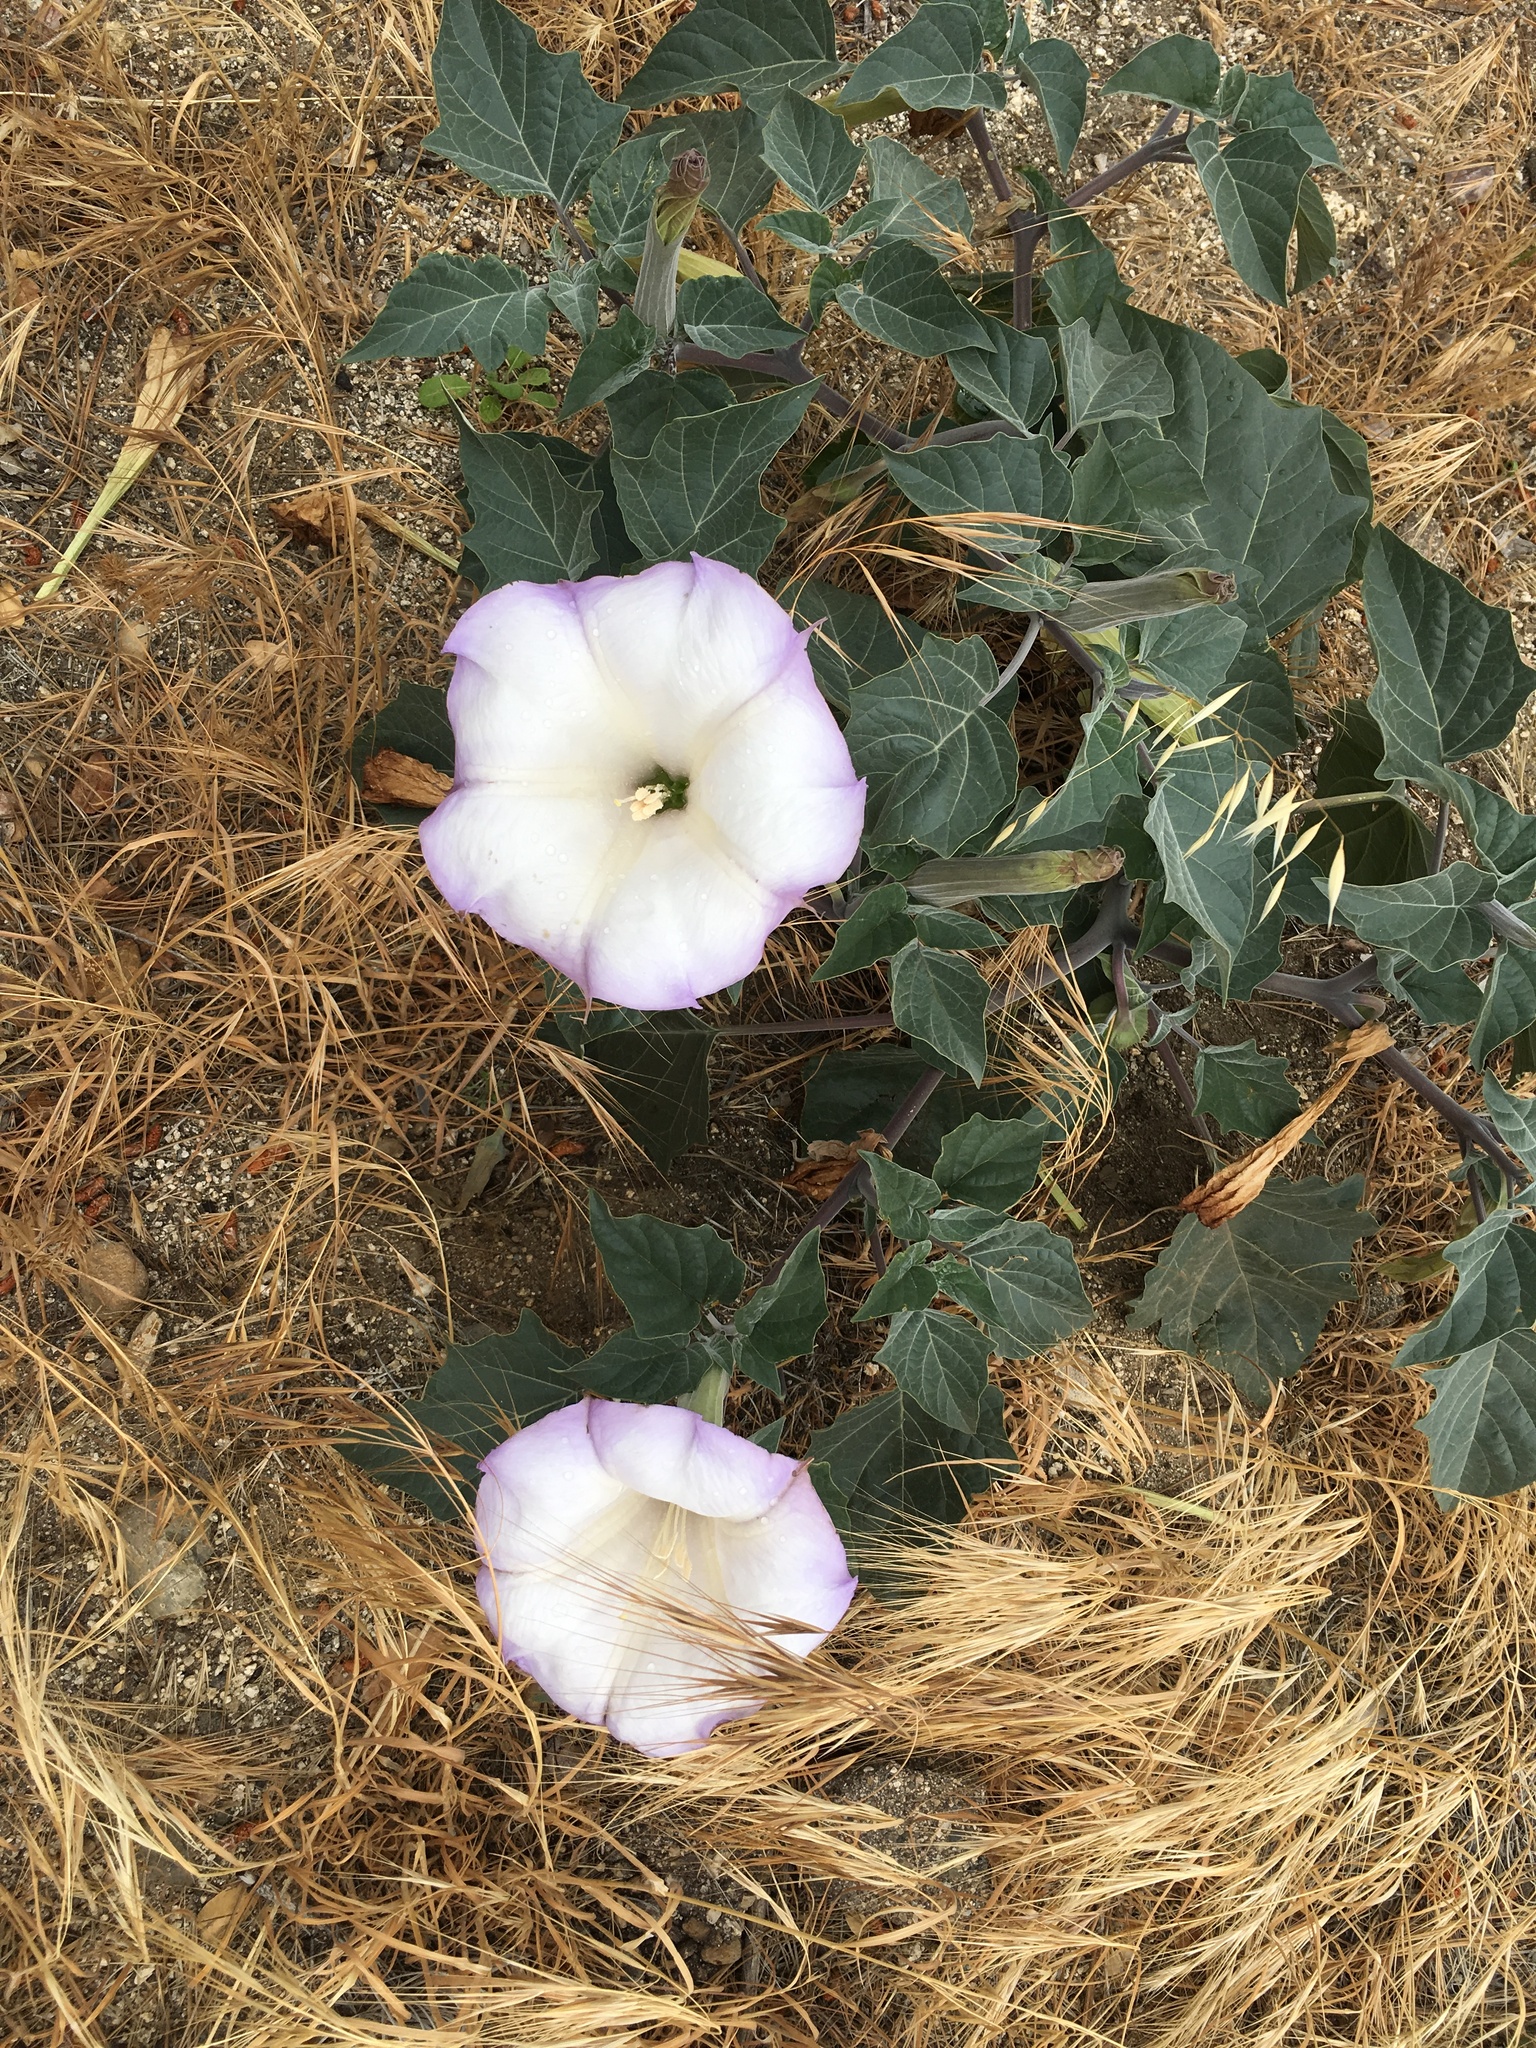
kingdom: Plantae
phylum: Tracheophyta
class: Magnoliopsida
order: Solanales
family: Solanaceae
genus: Datura
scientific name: Datura wrightii
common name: Sacred thorn-apple
